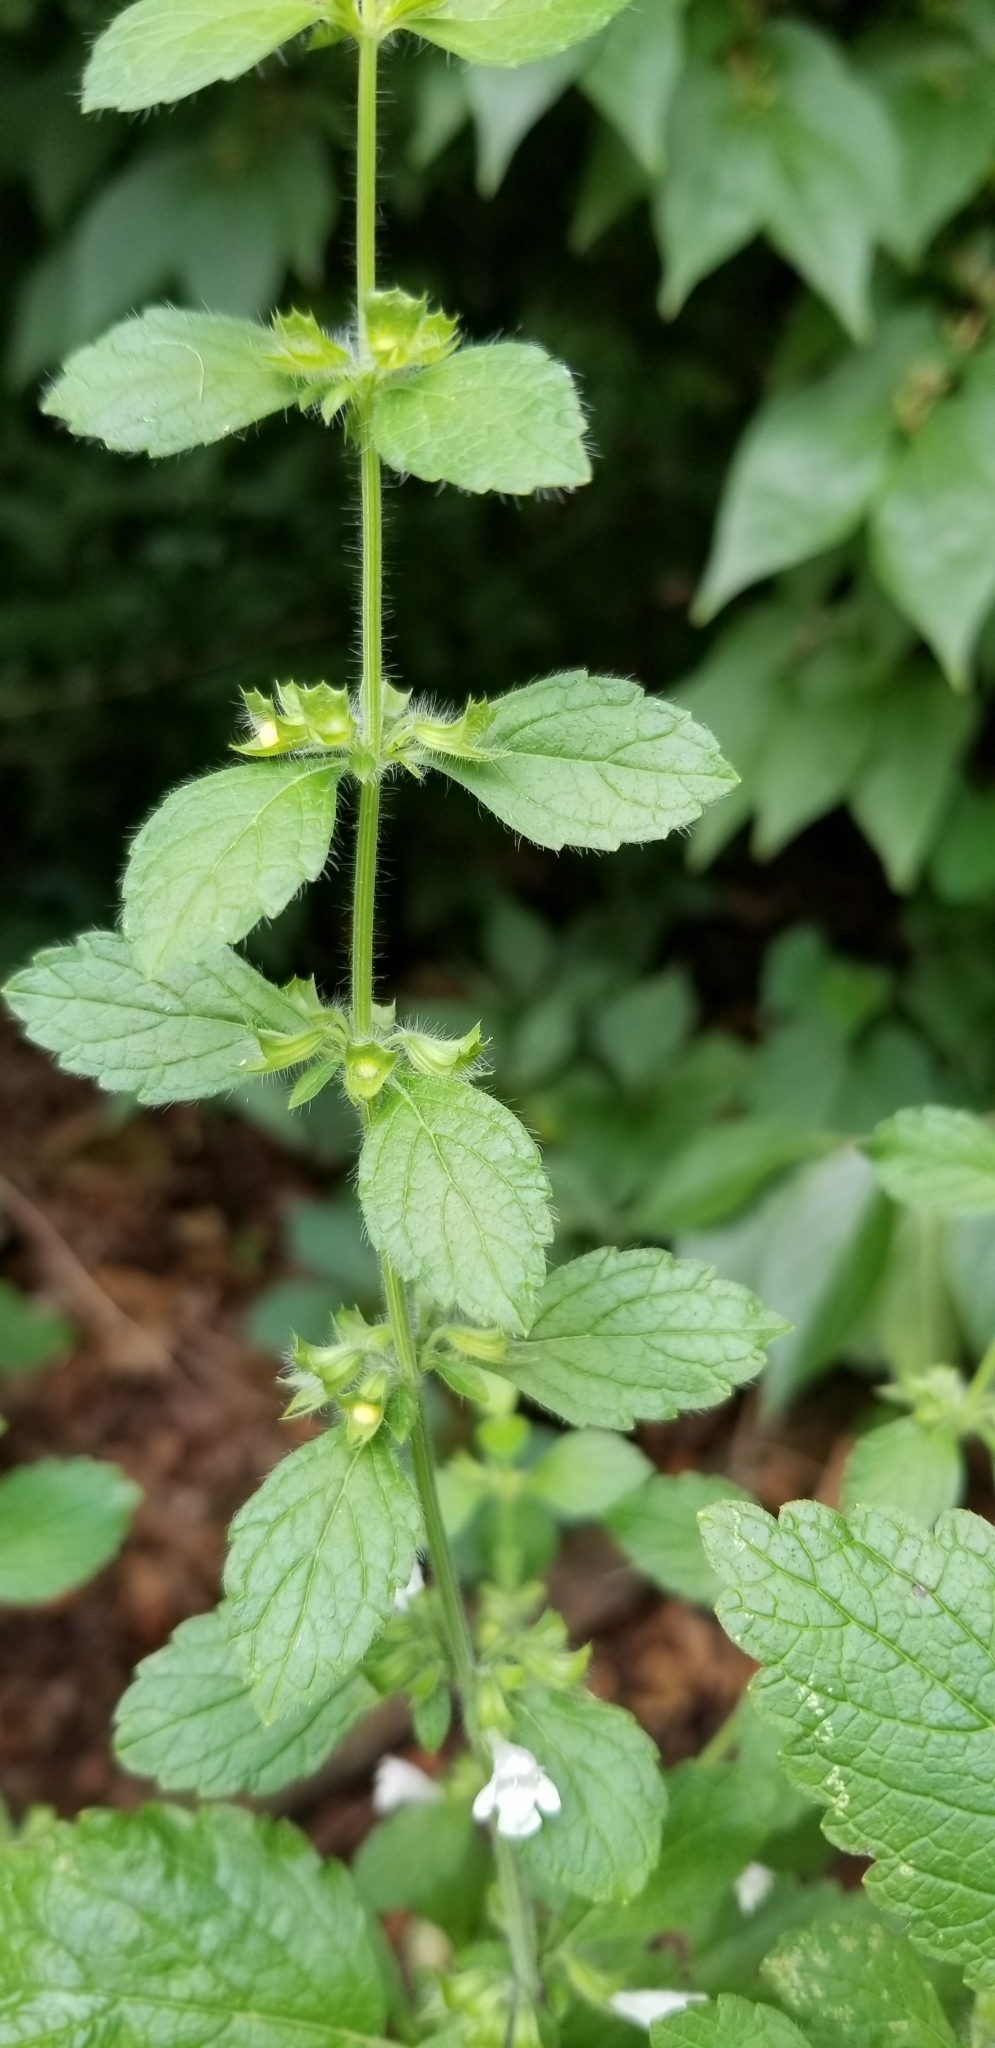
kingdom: Plantae
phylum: Tracheophyta
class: Magnoliopsida
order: Lamiales
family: Lamiaceae
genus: Melissa
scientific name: Melissa officinalis
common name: Balm
